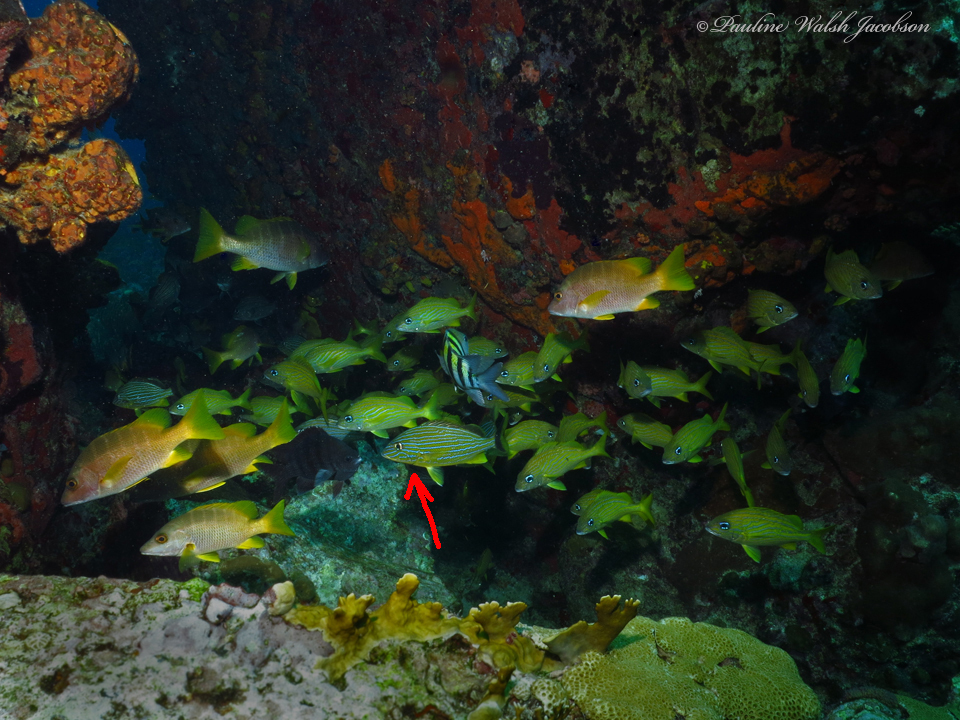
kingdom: Animalia
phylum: Chordata
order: Perciformes
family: Haemulidae
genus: Haemulon
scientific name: Haemulon sciurus
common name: Bluestriped grunt
